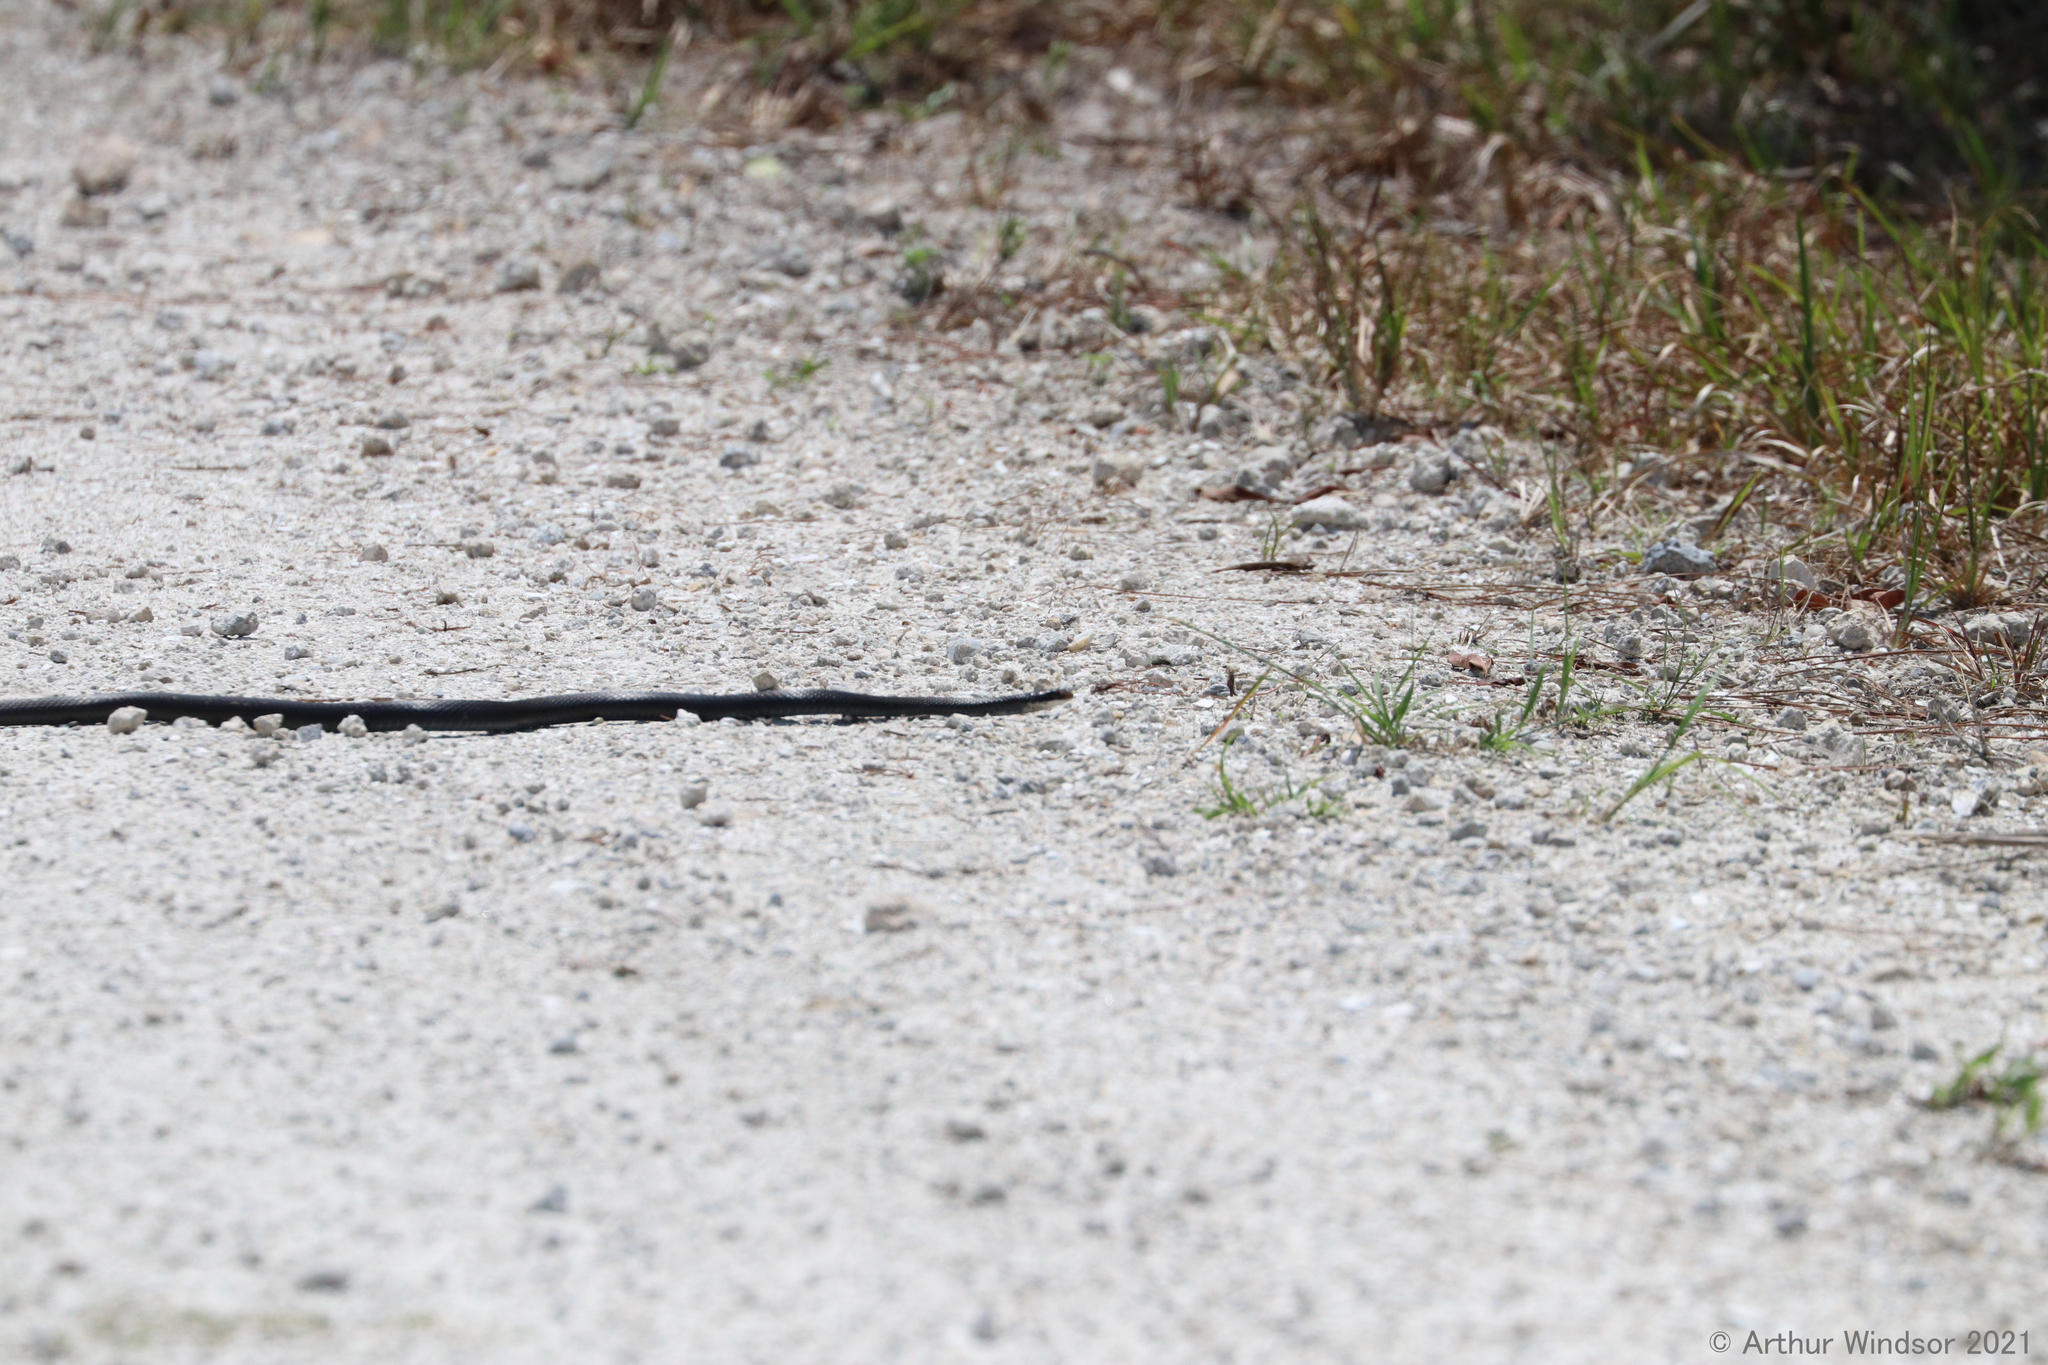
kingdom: Animalia
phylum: Chordata
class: Squamata
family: Colubridae
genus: Coluber
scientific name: Coluber constrictor
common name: Eastern racer
